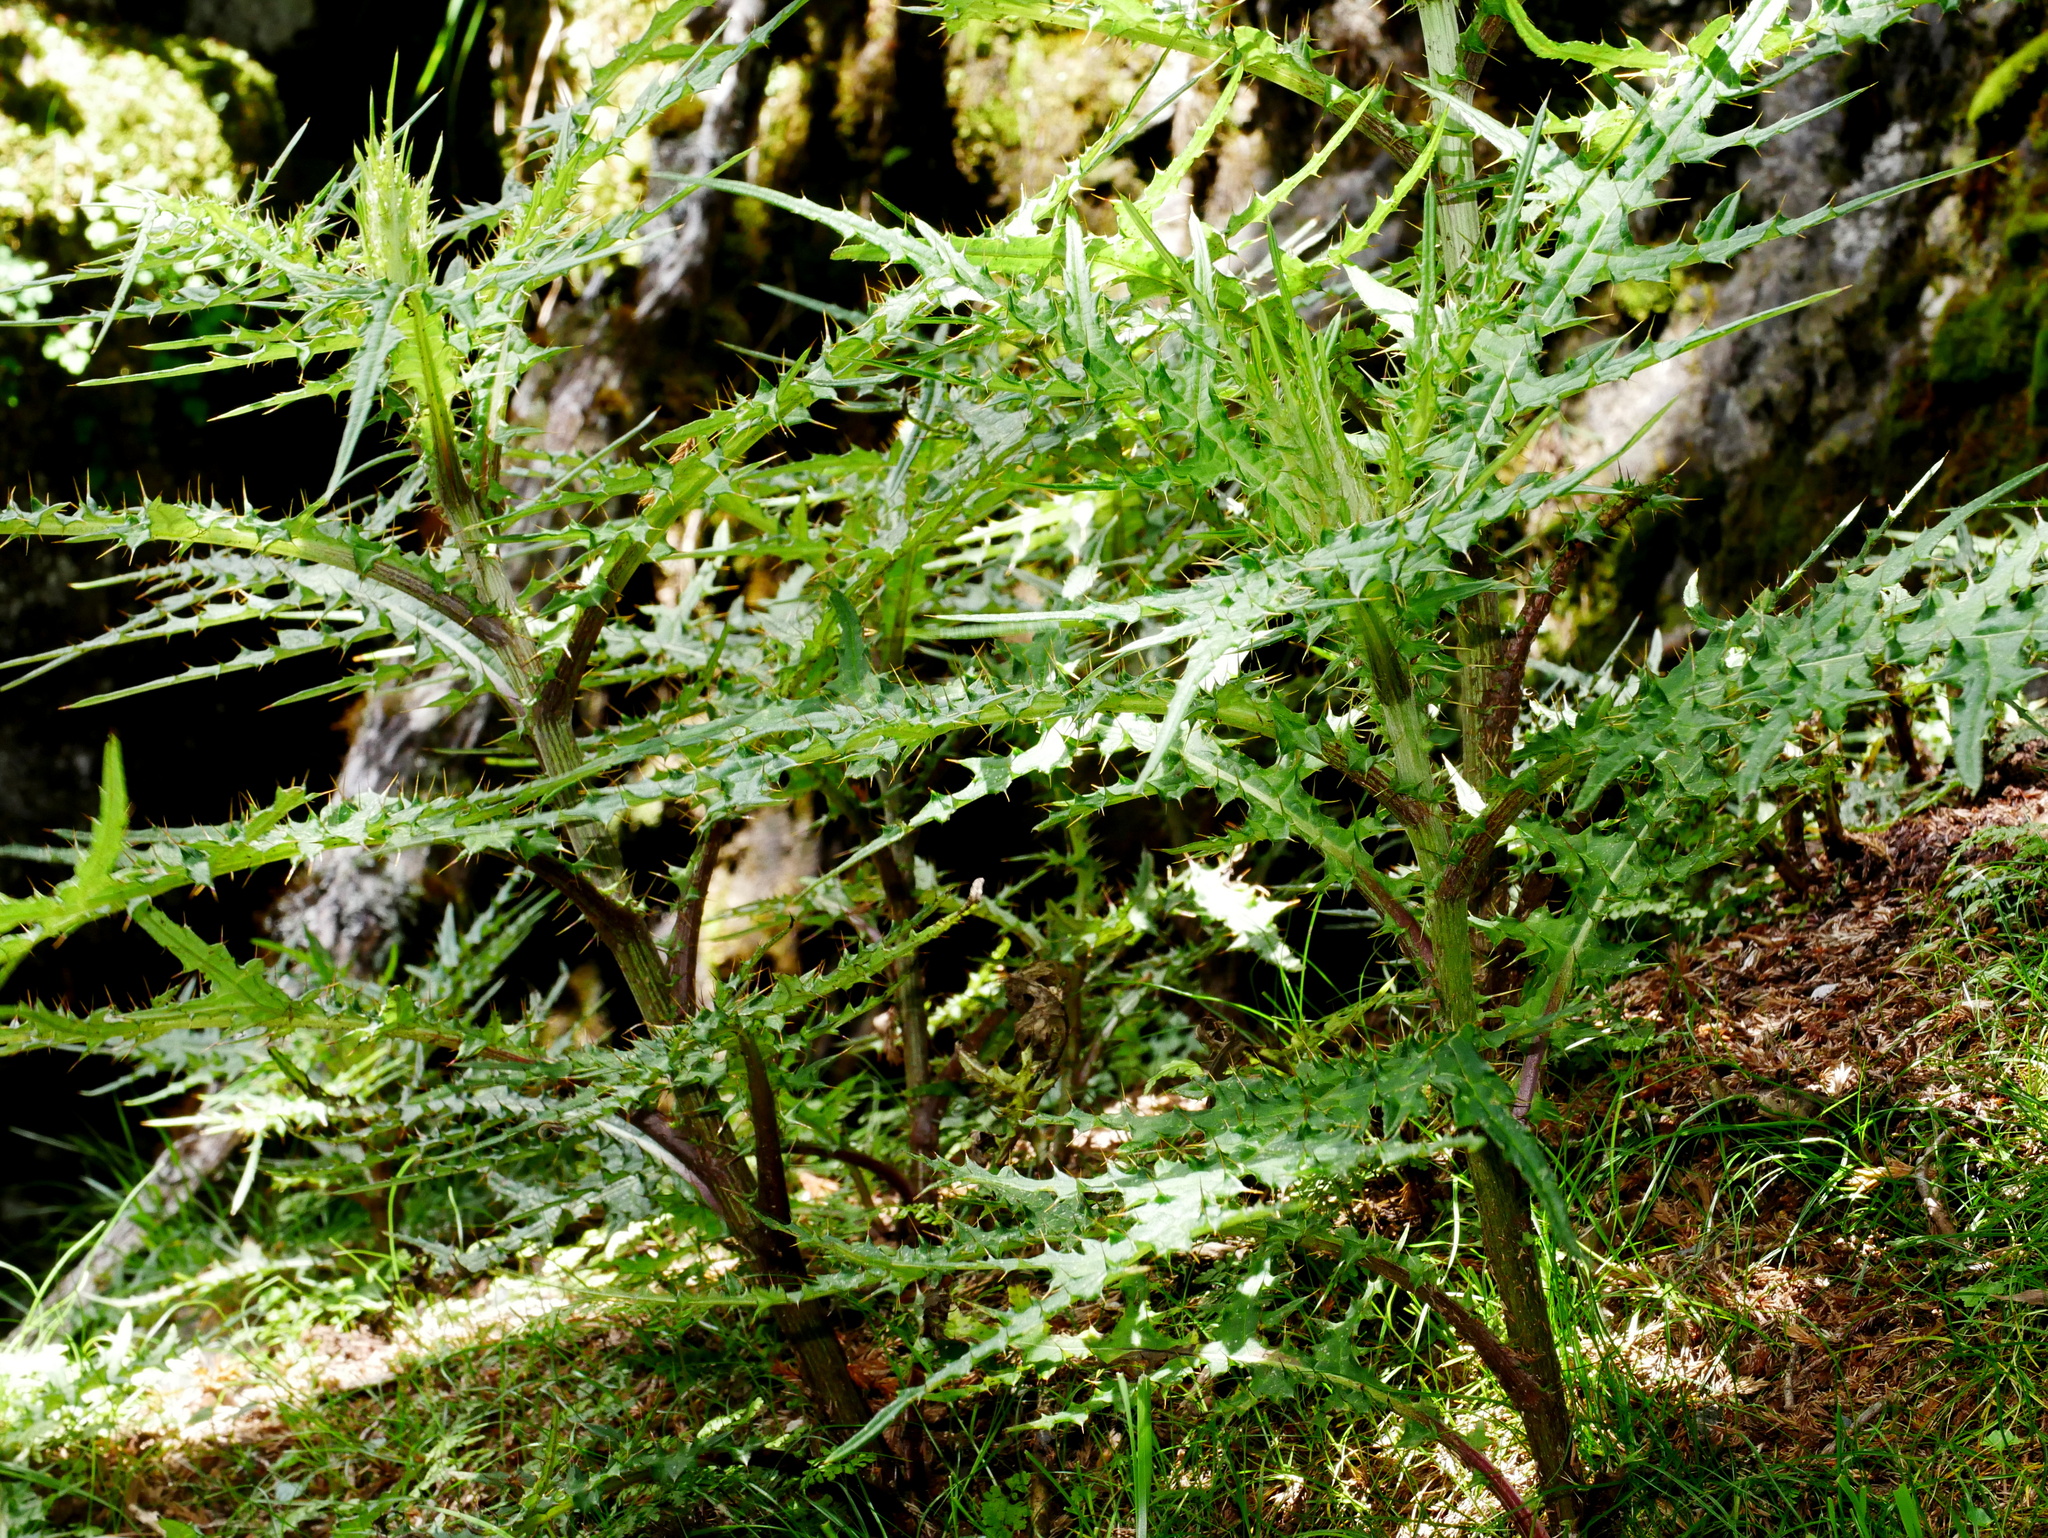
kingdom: Plantae
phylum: Tracheophyta
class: Magnoliopsida
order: Asterales
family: Asteraceae
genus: Cirsium
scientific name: Cirsium tatakaense
